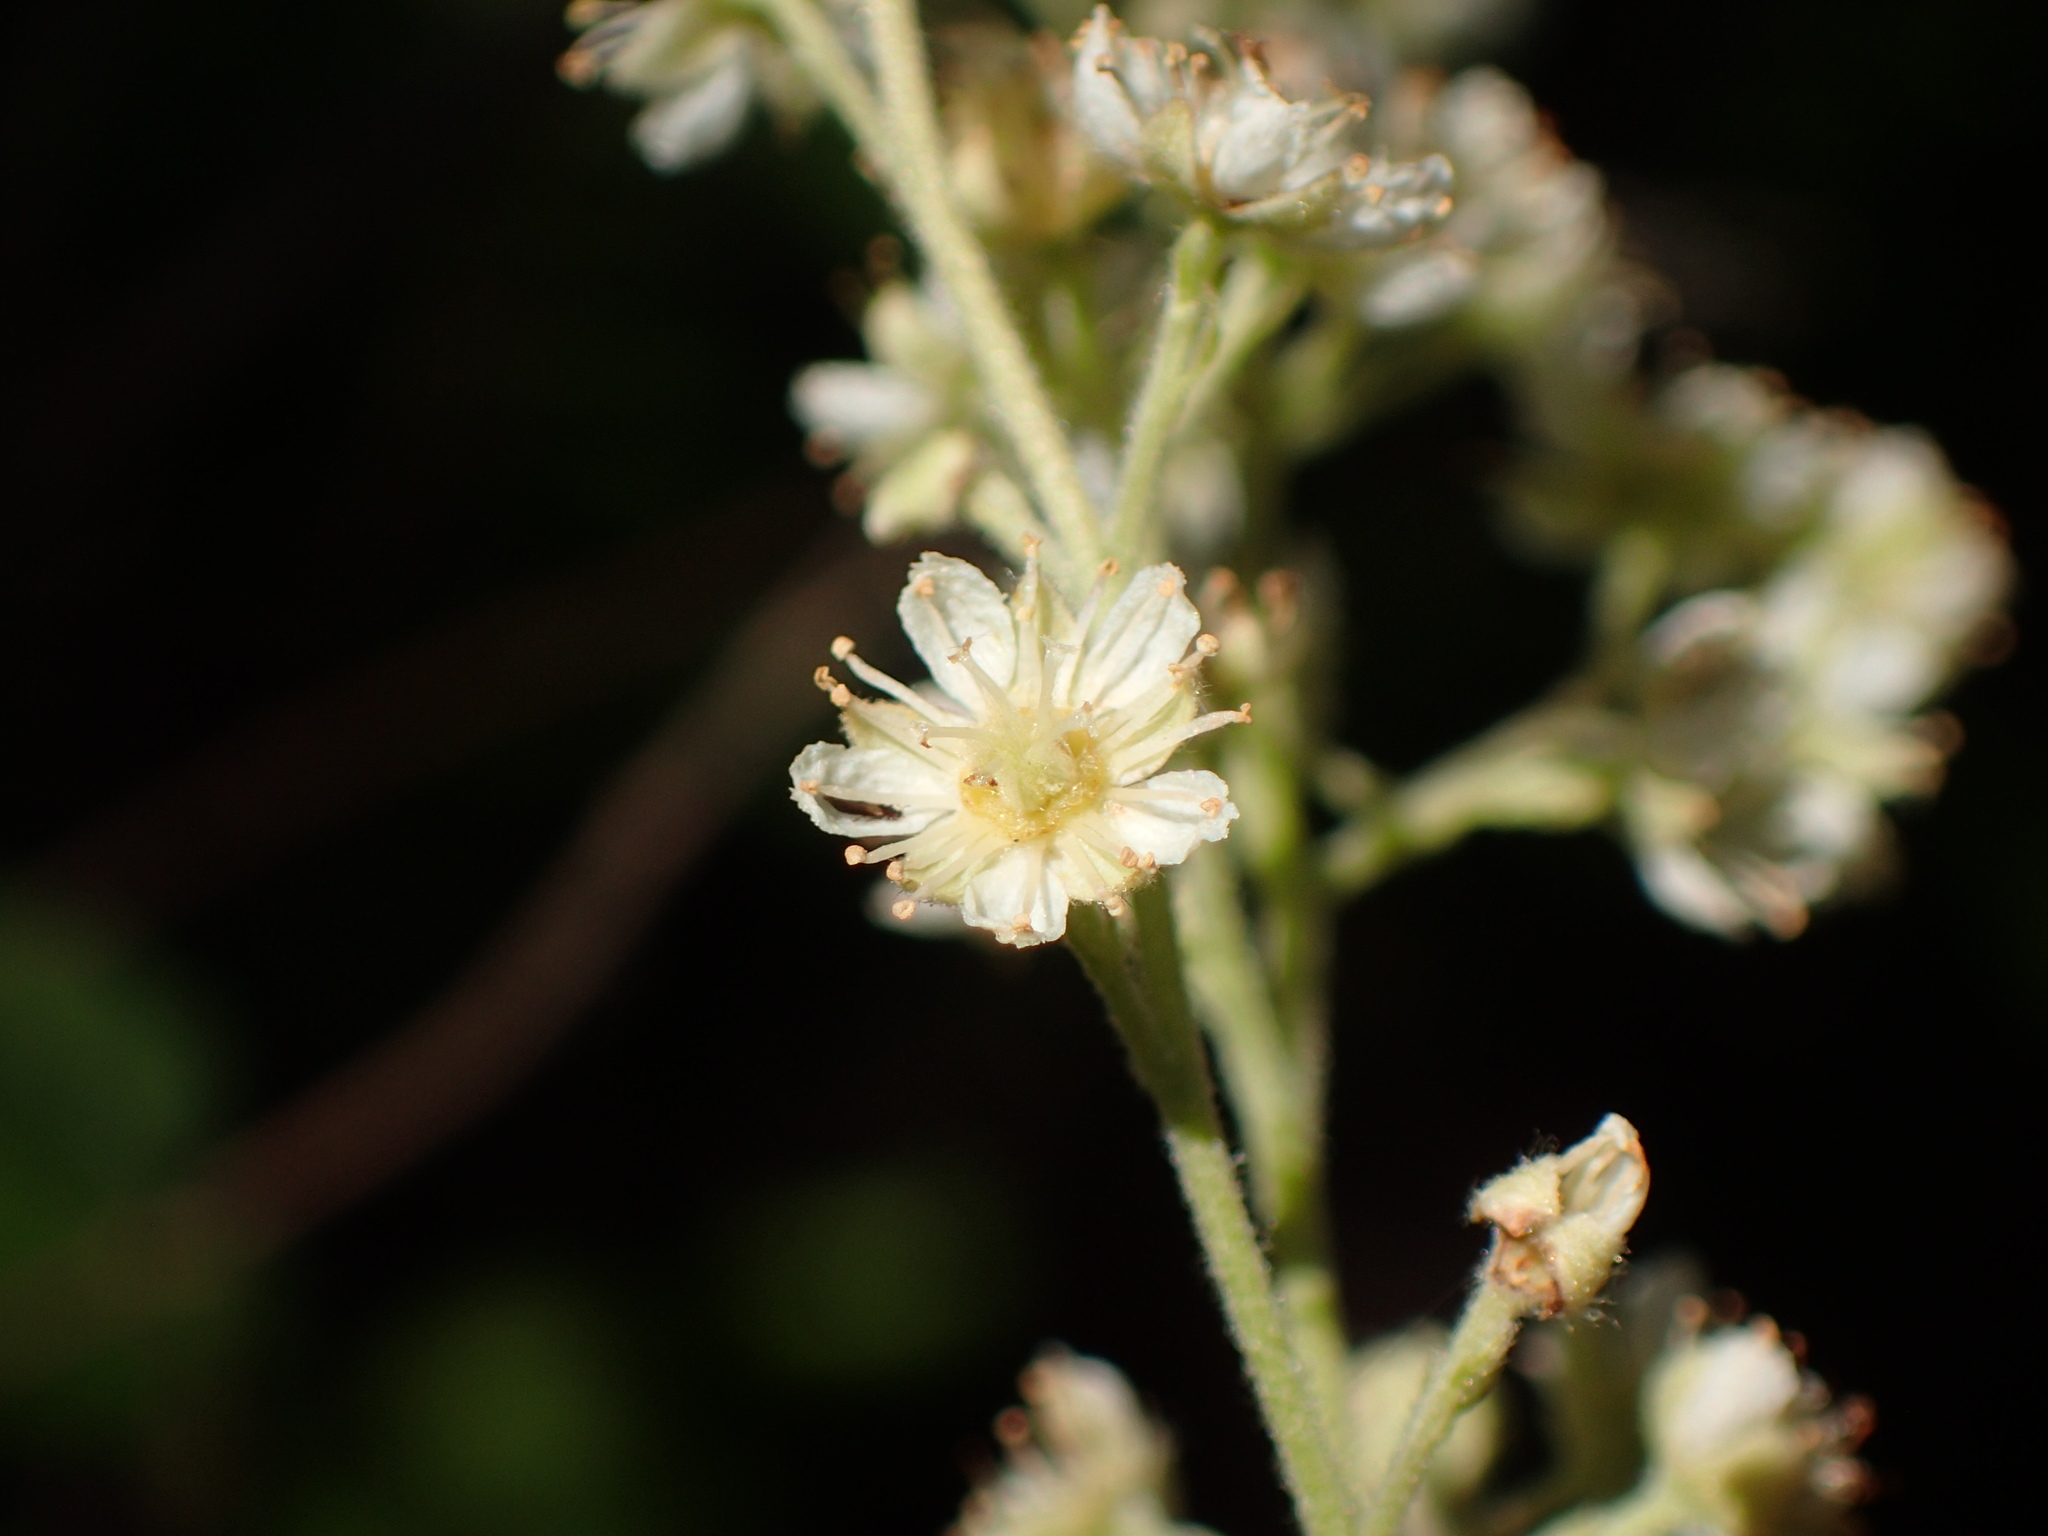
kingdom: Plantae
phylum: Tracheophyta
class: Magnoliopsida
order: Rosales
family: Rosaceae
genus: Holodiscus
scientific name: Holodiscus discolor
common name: Oceanspray
